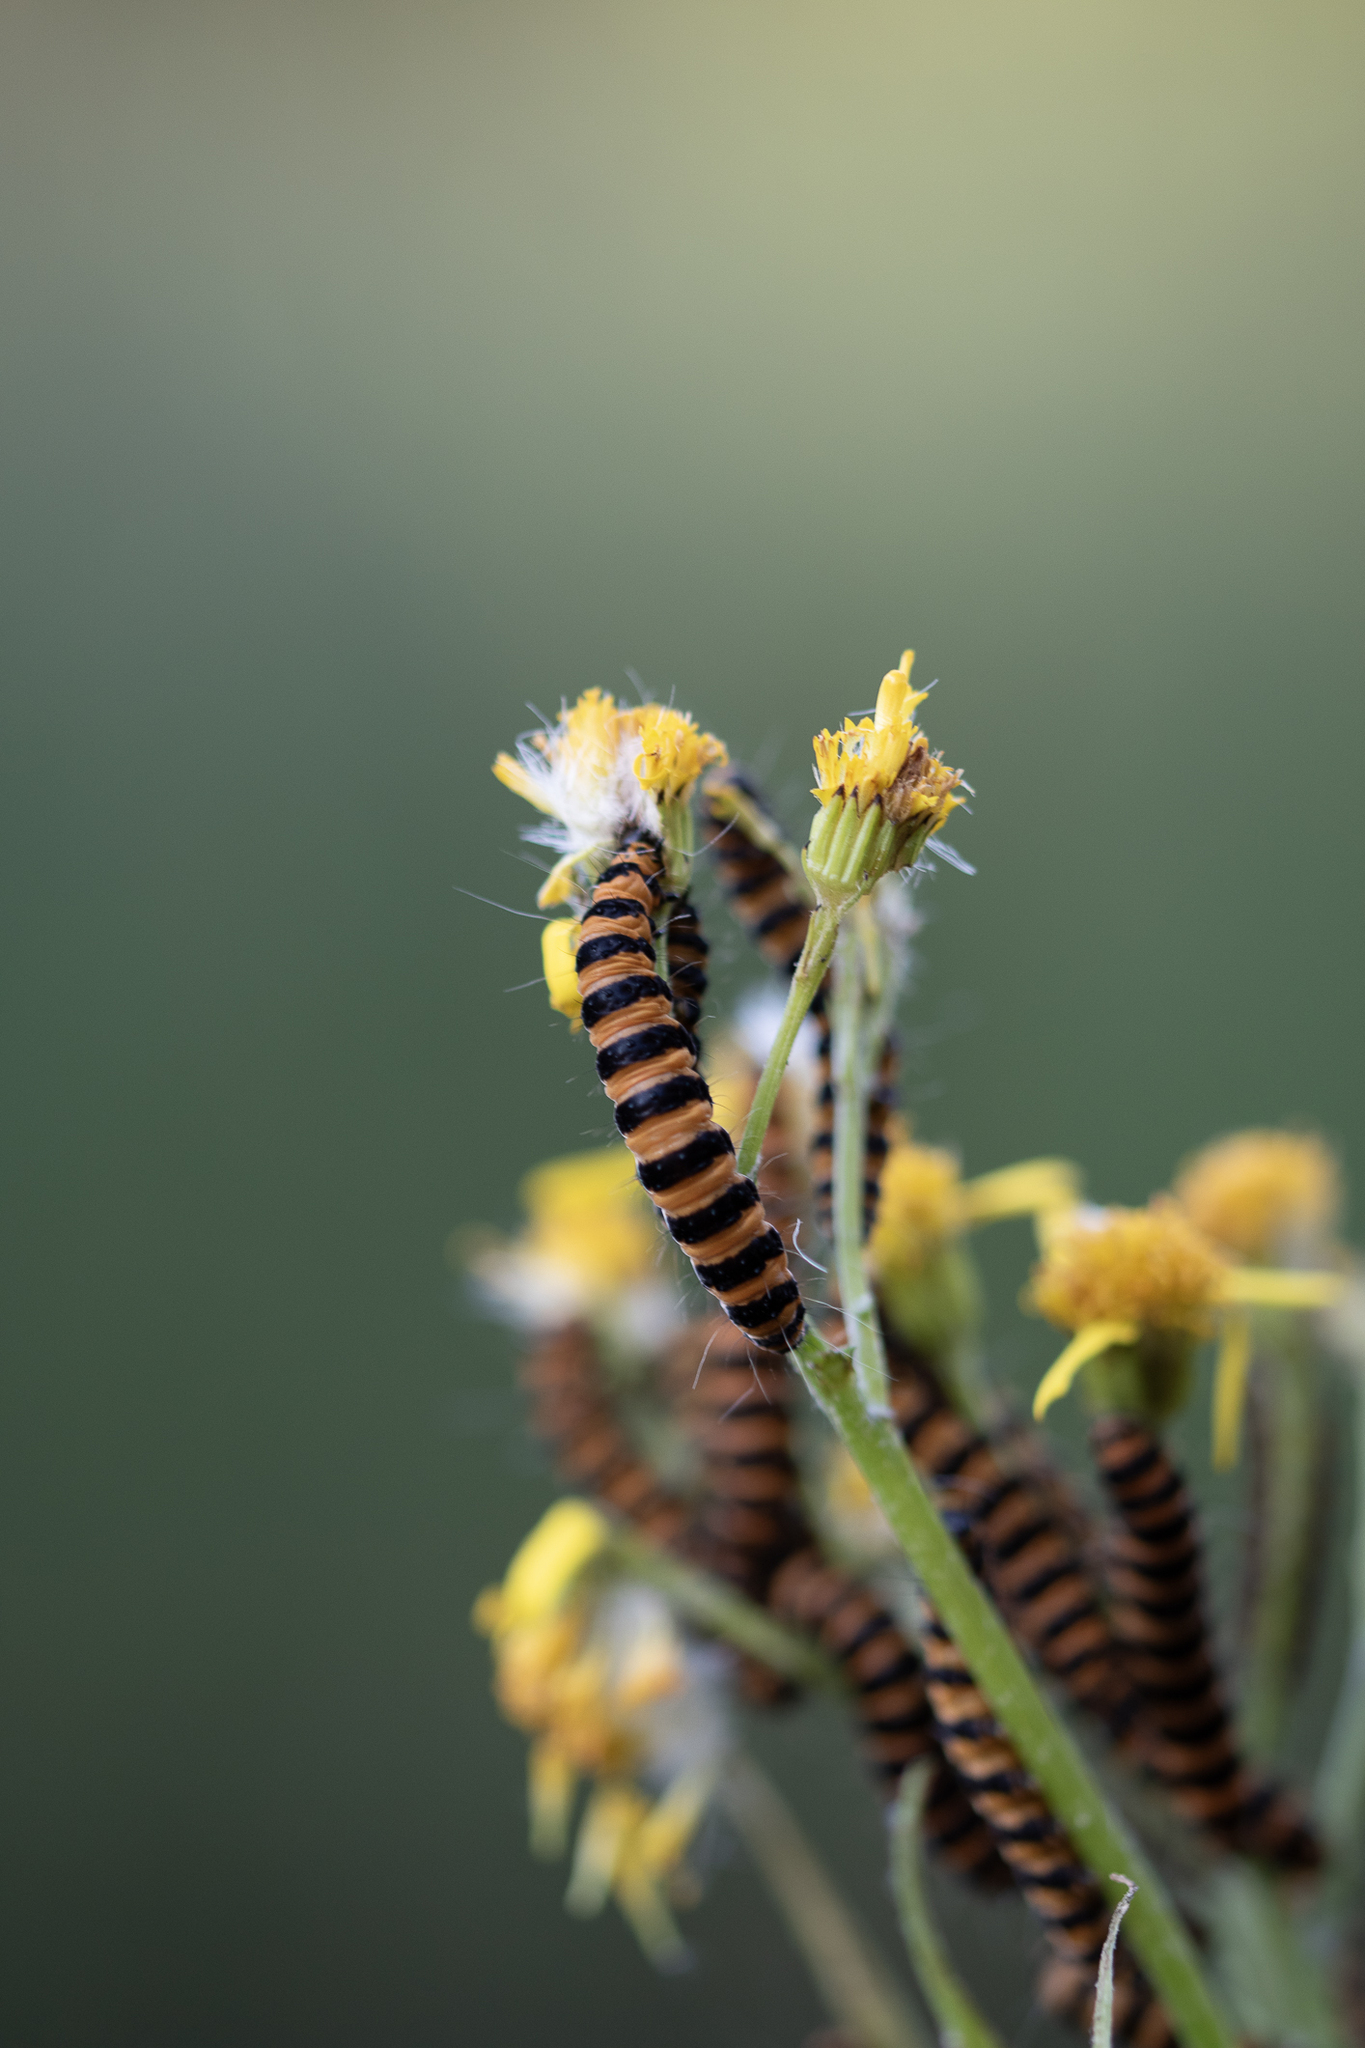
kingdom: Animalia
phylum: Arthropoda
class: Insecta
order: Lepidoptera
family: Erebidae
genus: Tyria
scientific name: Tyria jacobaeae
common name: Cinnabar
